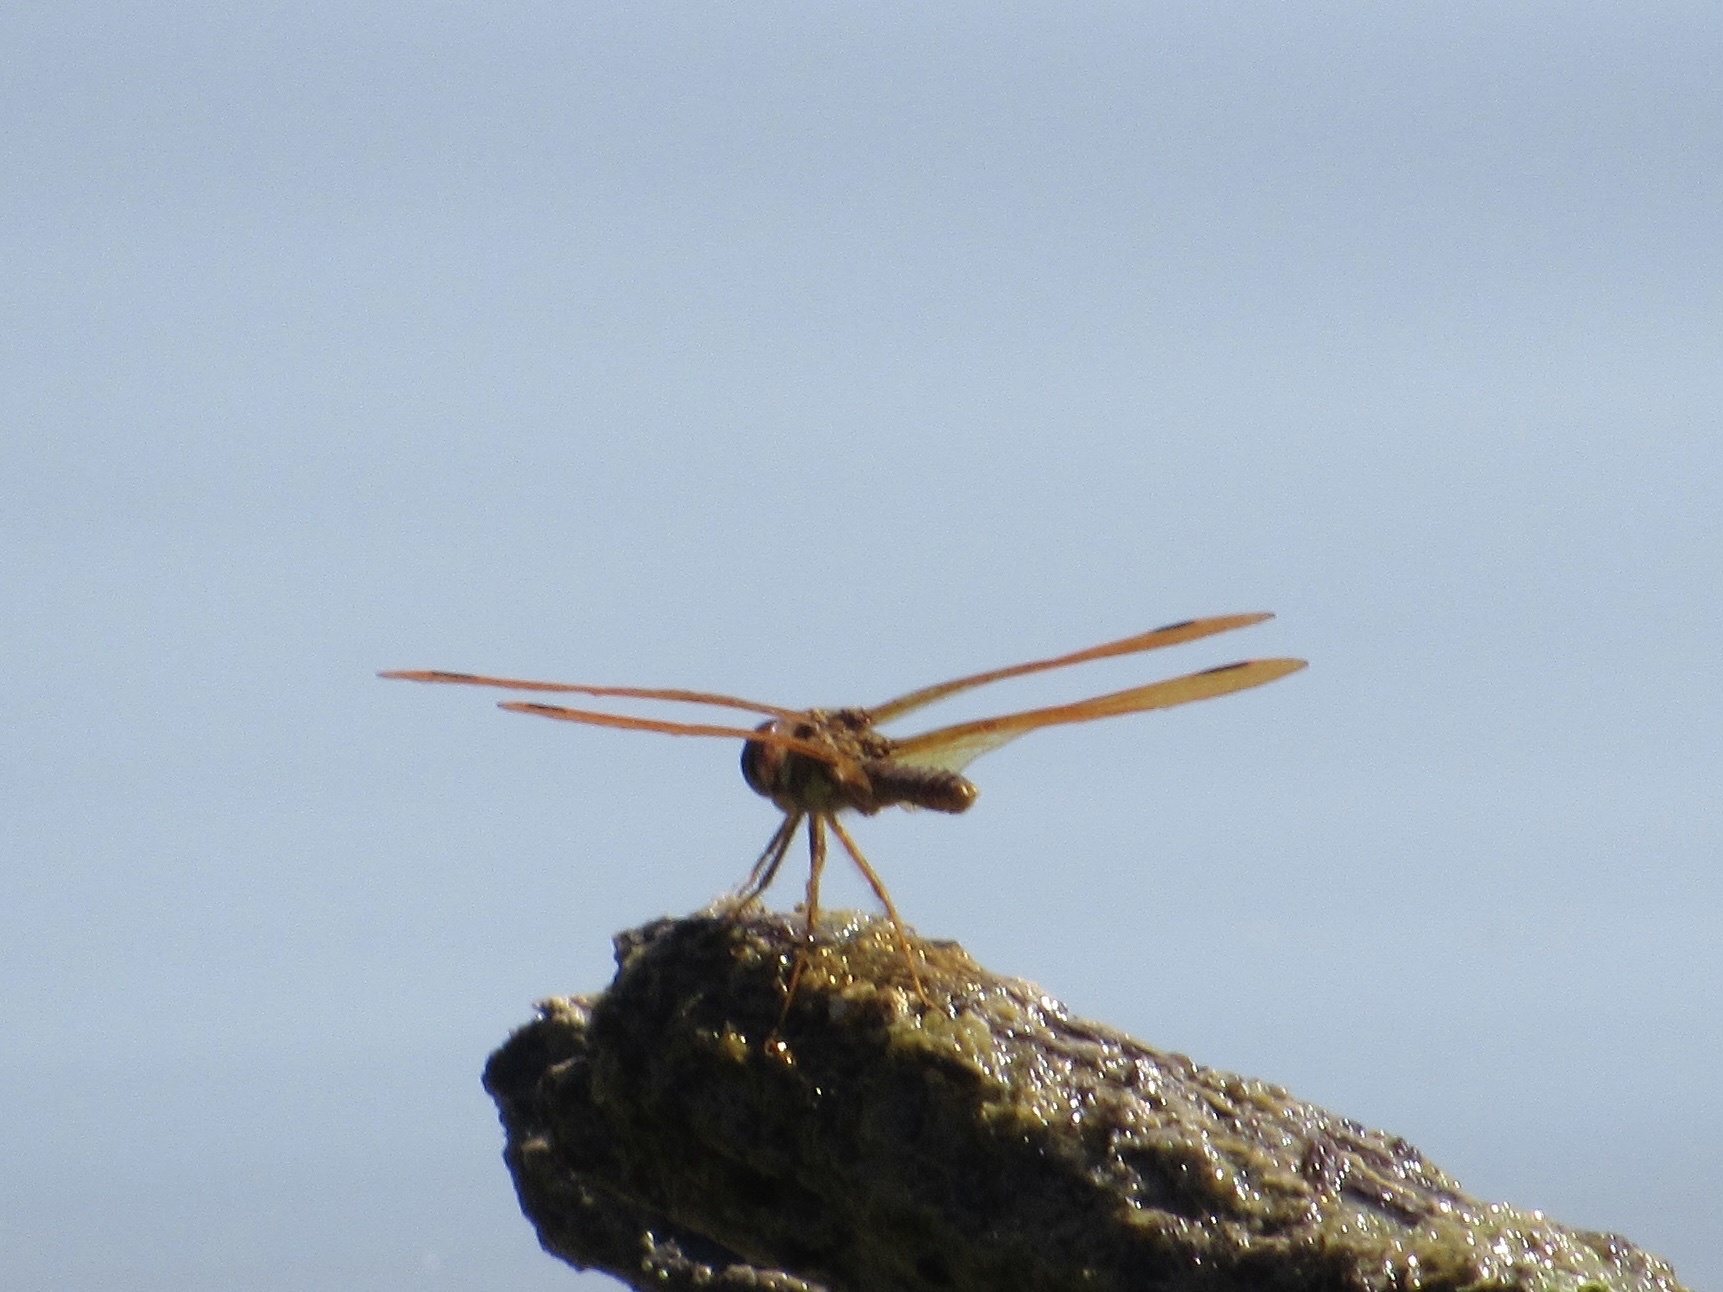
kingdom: Animalia
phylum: Arthropoda
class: Insecta
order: Odonata
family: Libellulidae
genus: Perithemis
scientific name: Perithemis tenera
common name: Eastern amberwing
